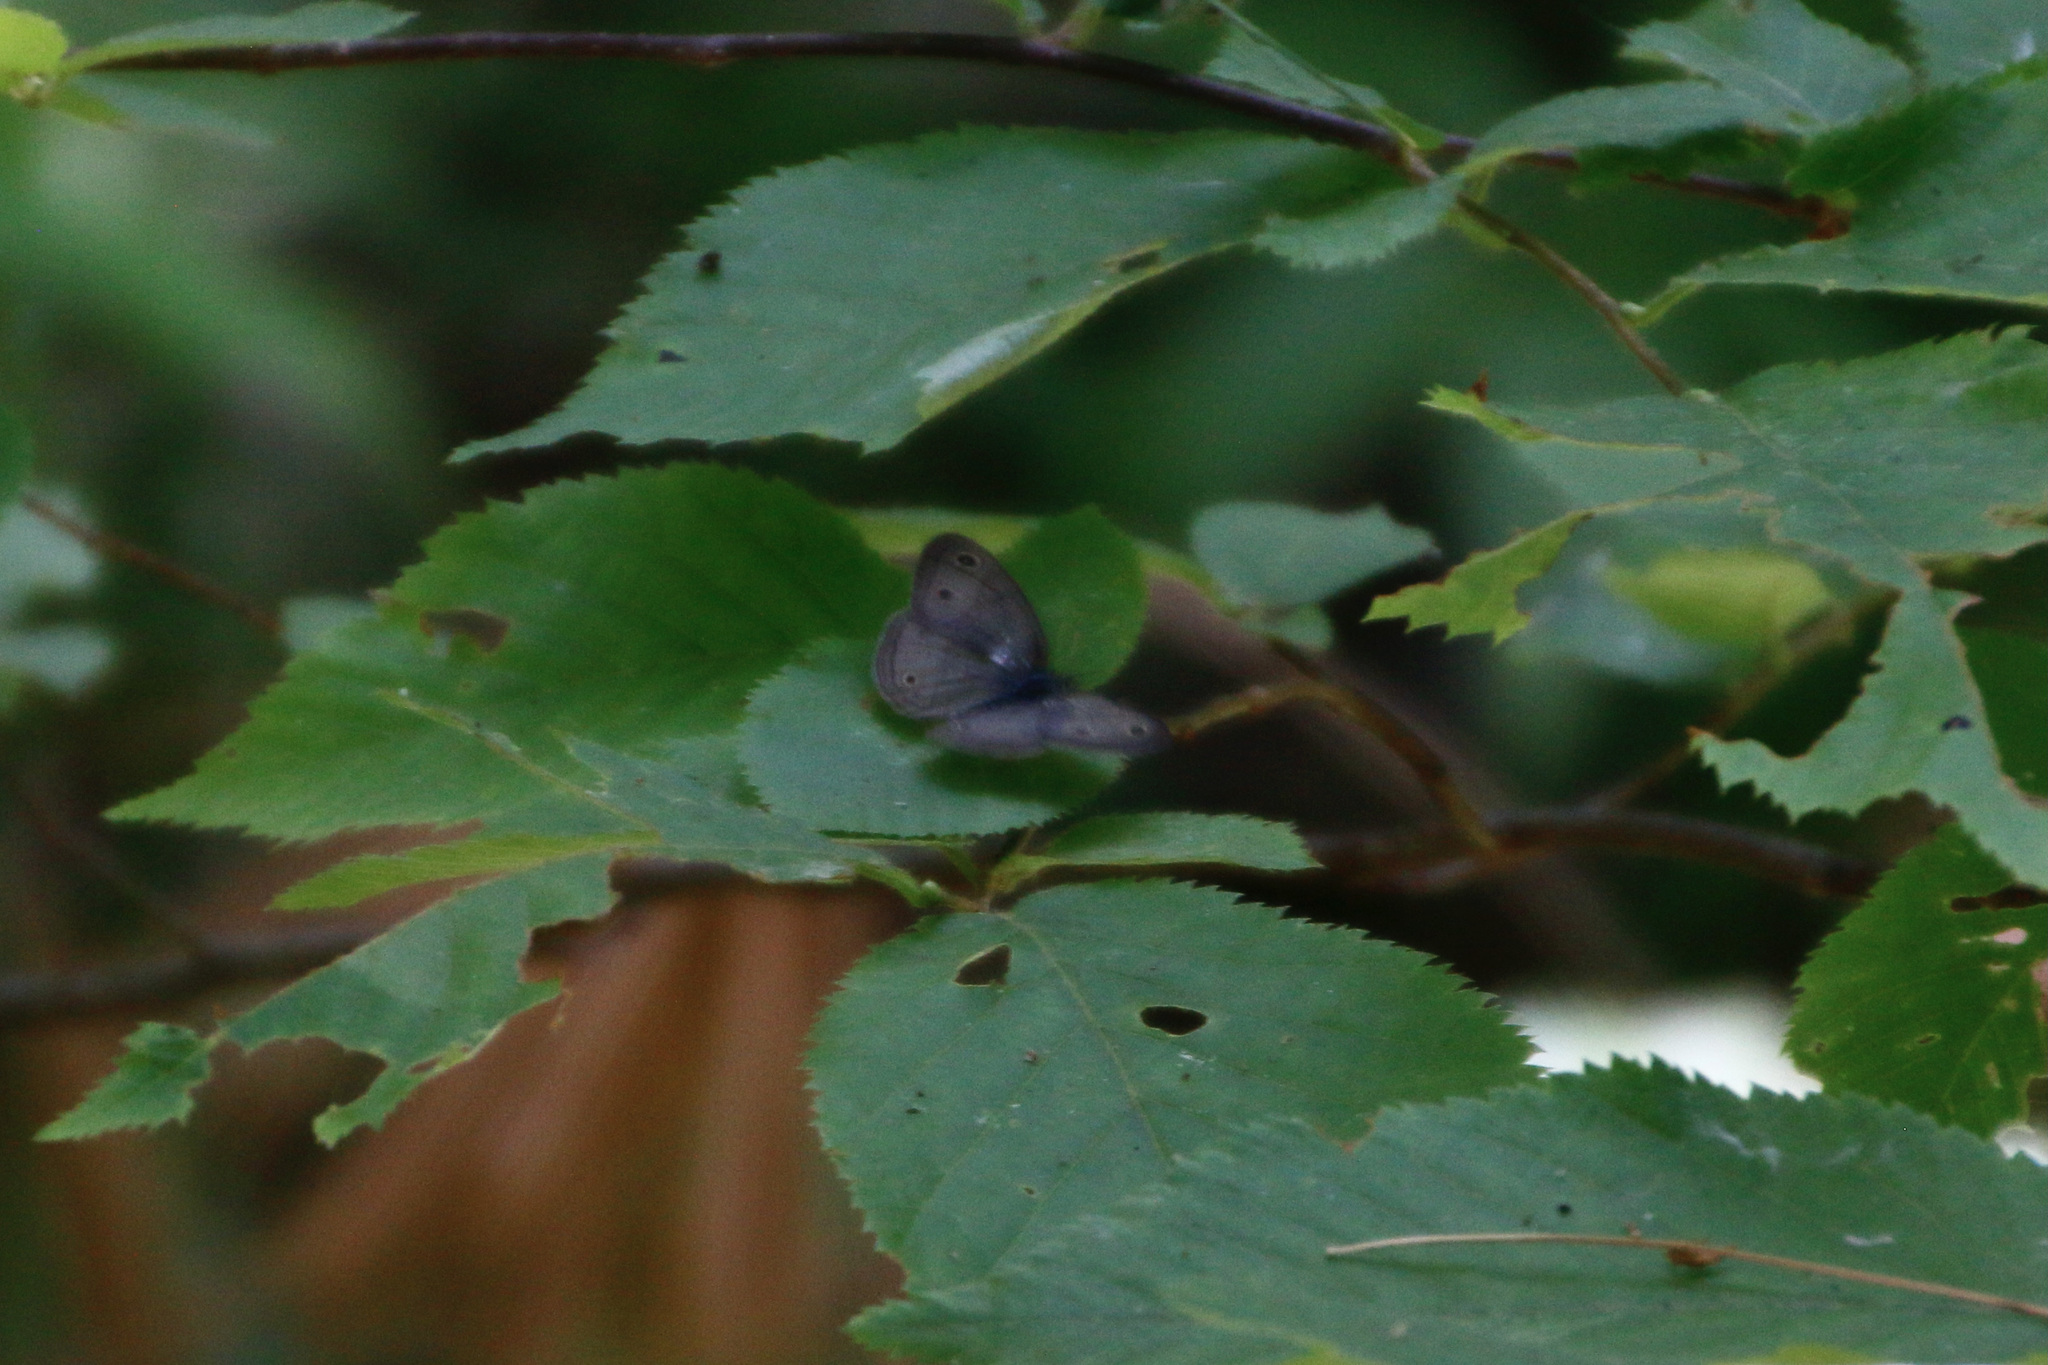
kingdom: Animalia
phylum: Arthropoda
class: Insecta
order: Lepidoptera
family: Nymphalidae
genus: Euptychia
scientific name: Euptychia cymela
